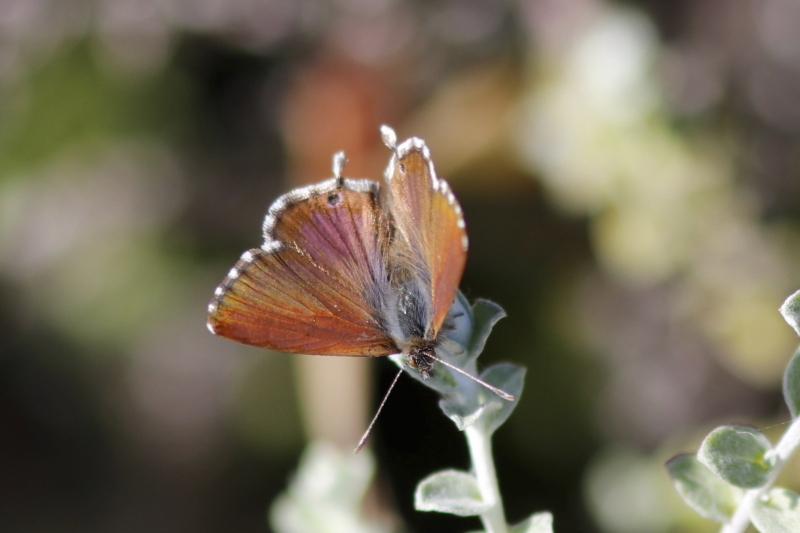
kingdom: Animalia
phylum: Arthropoda
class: Insecta
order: Lepidoptera
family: Lycaenidae
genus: Cacyreus
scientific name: Cacyreus fracta
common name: Water bronze
